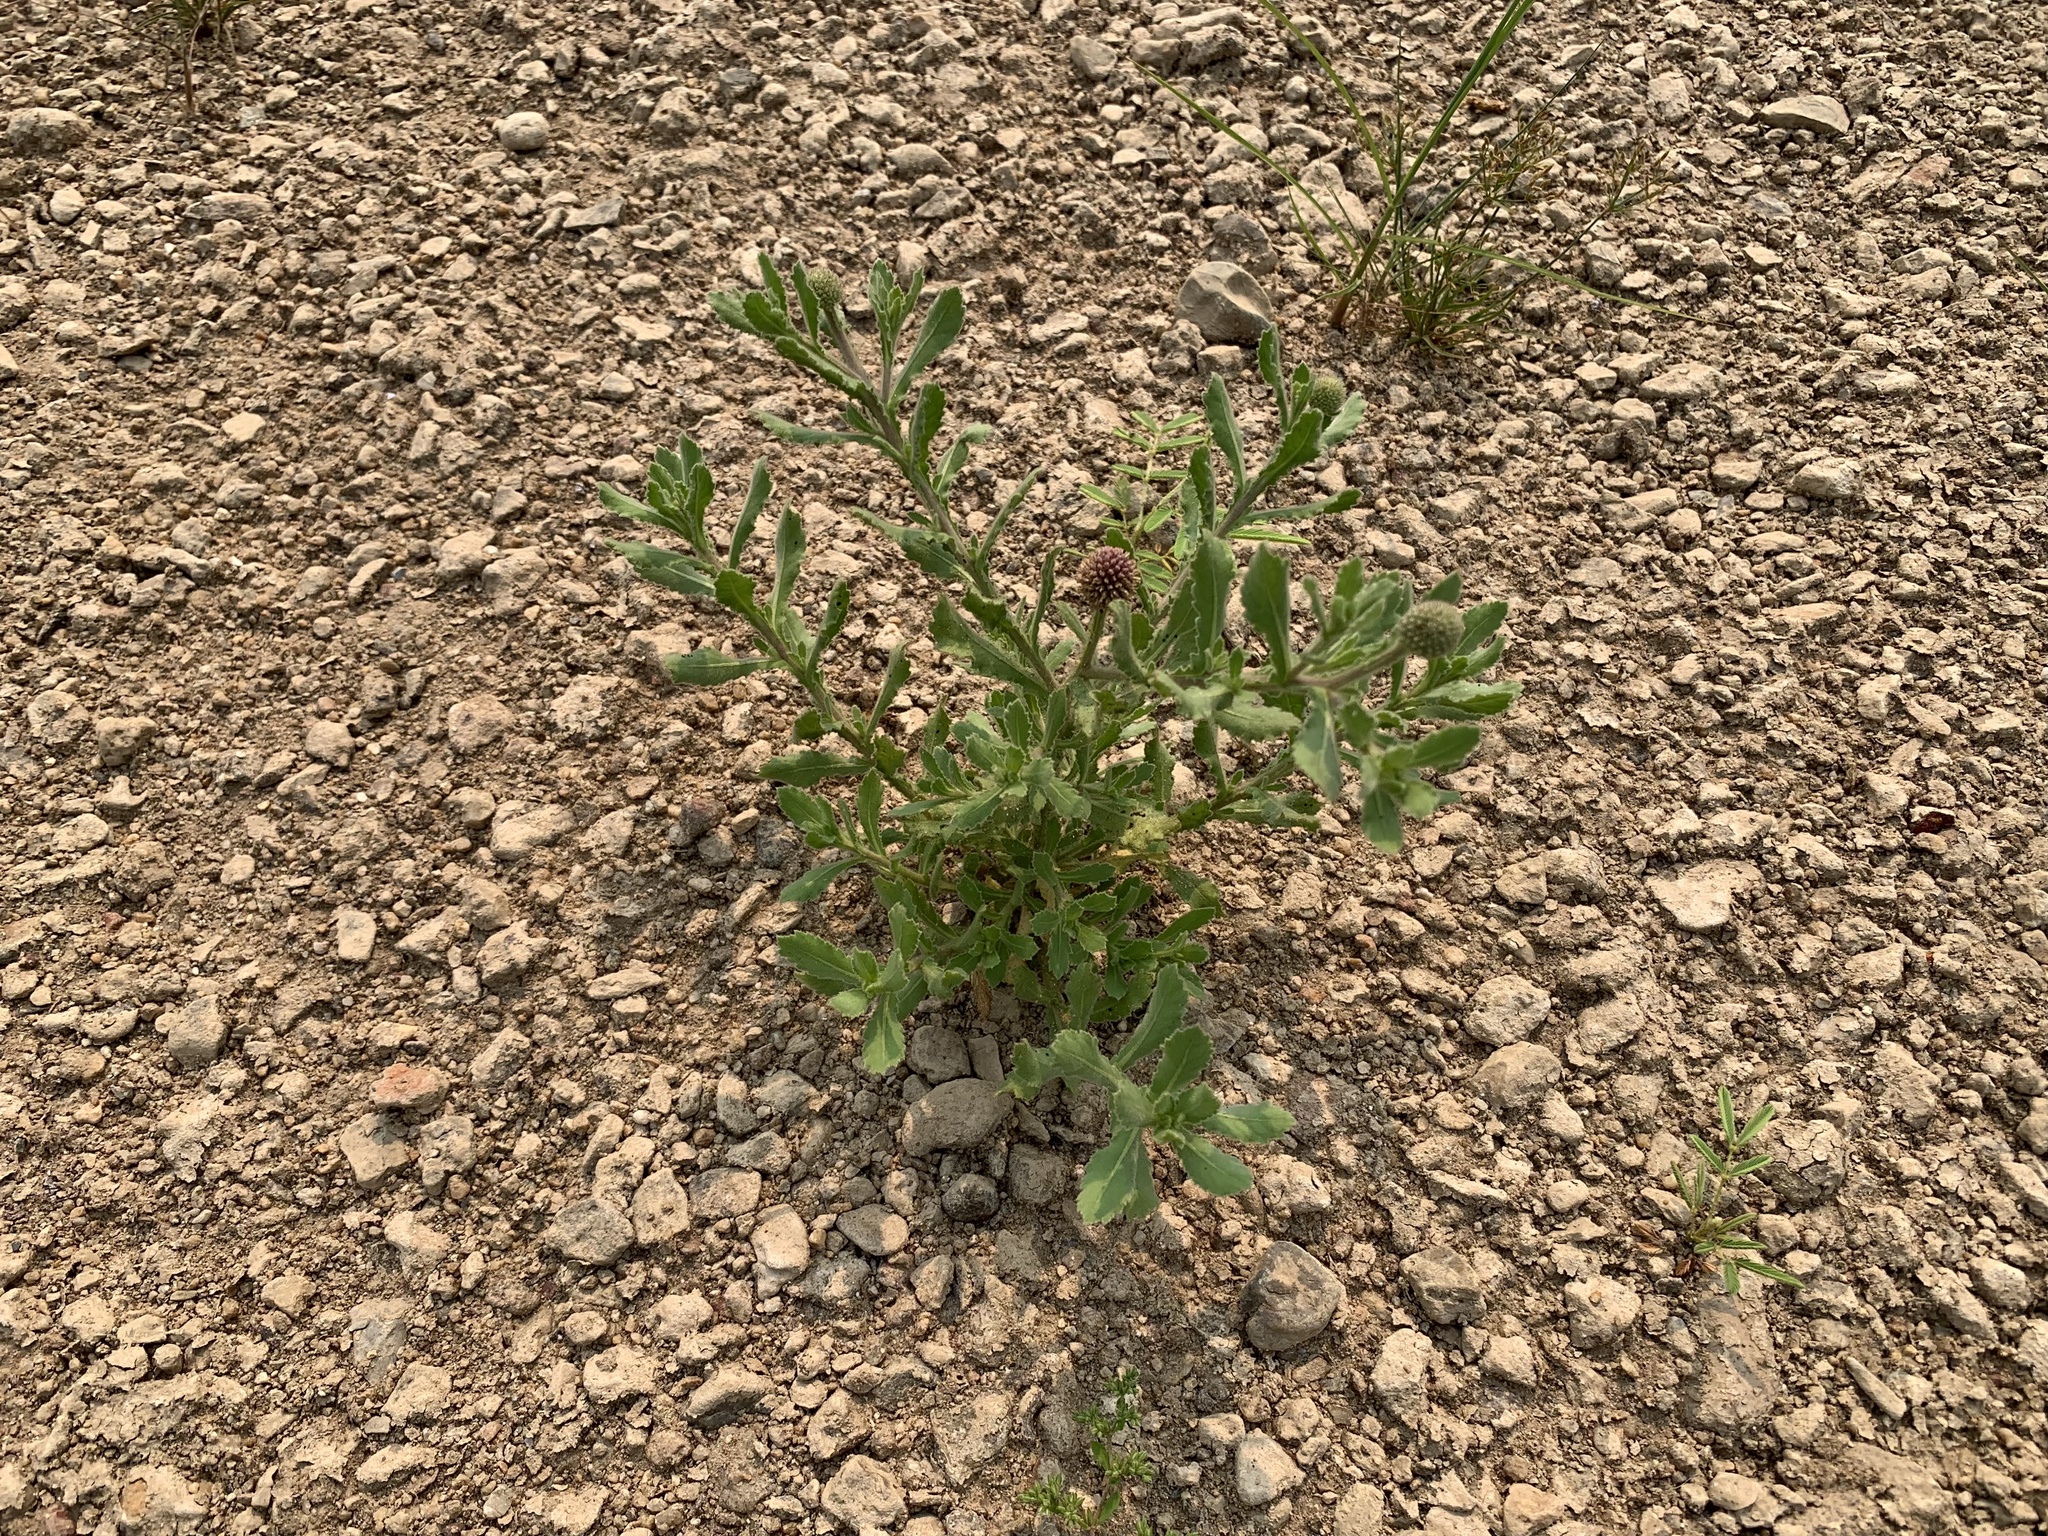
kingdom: Plantae
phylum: Tracheophyta
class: Magnoliopsida
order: Asterales
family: Asteraceae
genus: Sphaeranthus
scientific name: Sphaeranthus indicus
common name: East indian globe thistle
